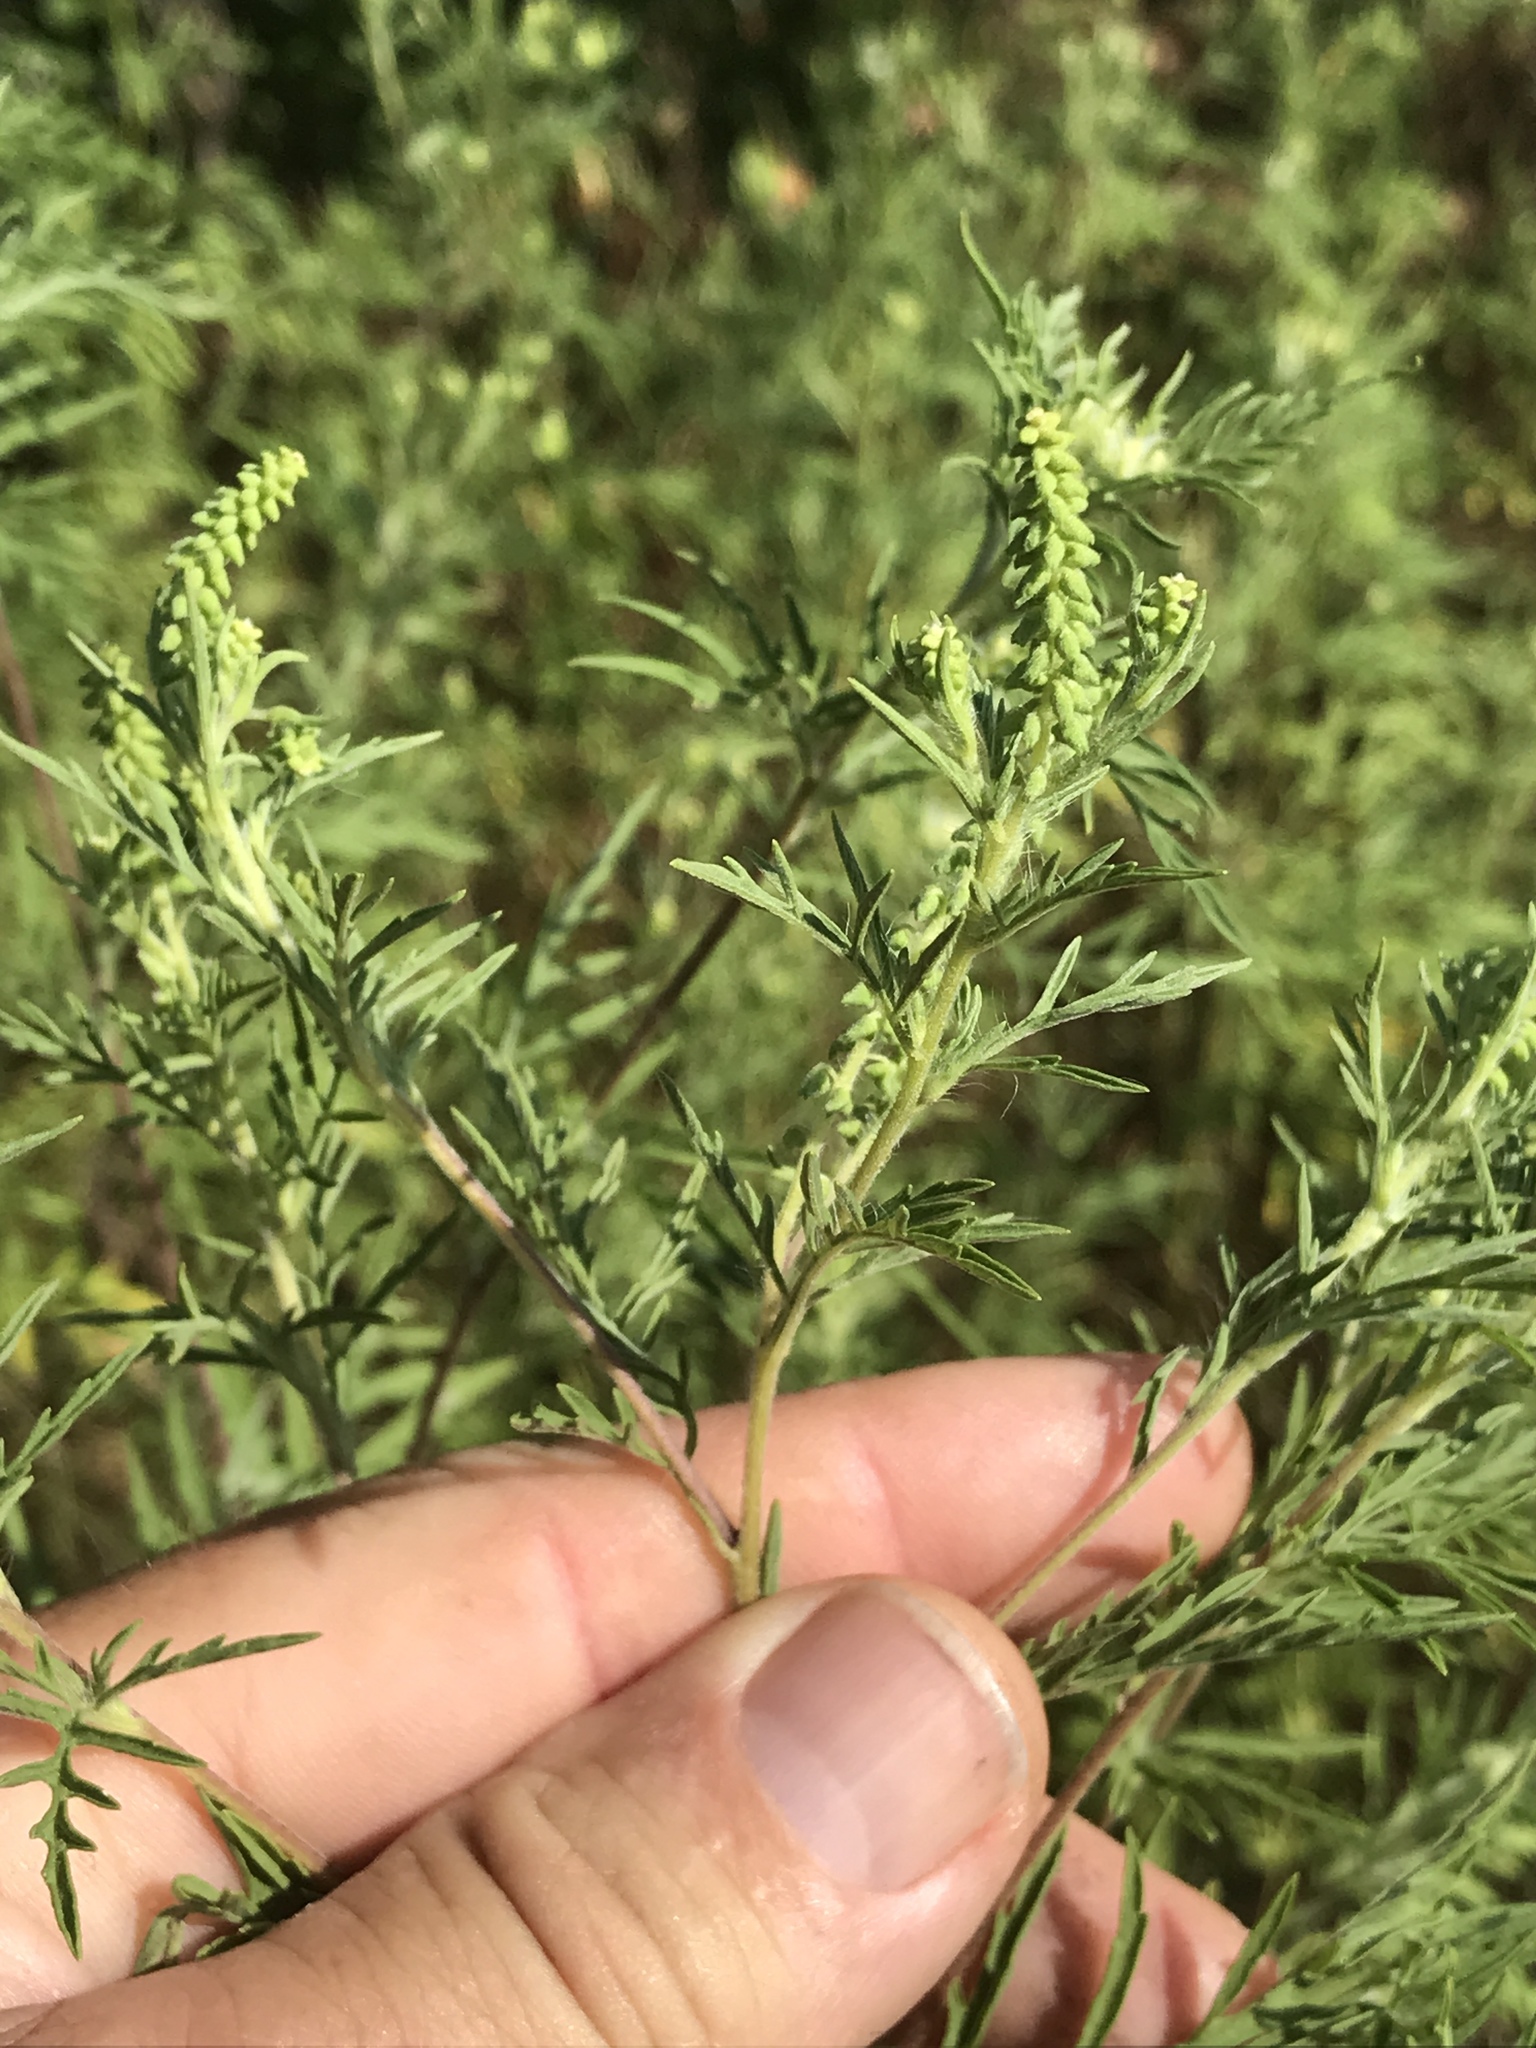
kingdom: Plantae
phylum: Tracheophyta
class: Magnoliopsida
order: Asterales
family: Asteraceae
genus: Ambrosia
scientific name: Ambrosia artemisiifolia
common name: Annual ragweed
